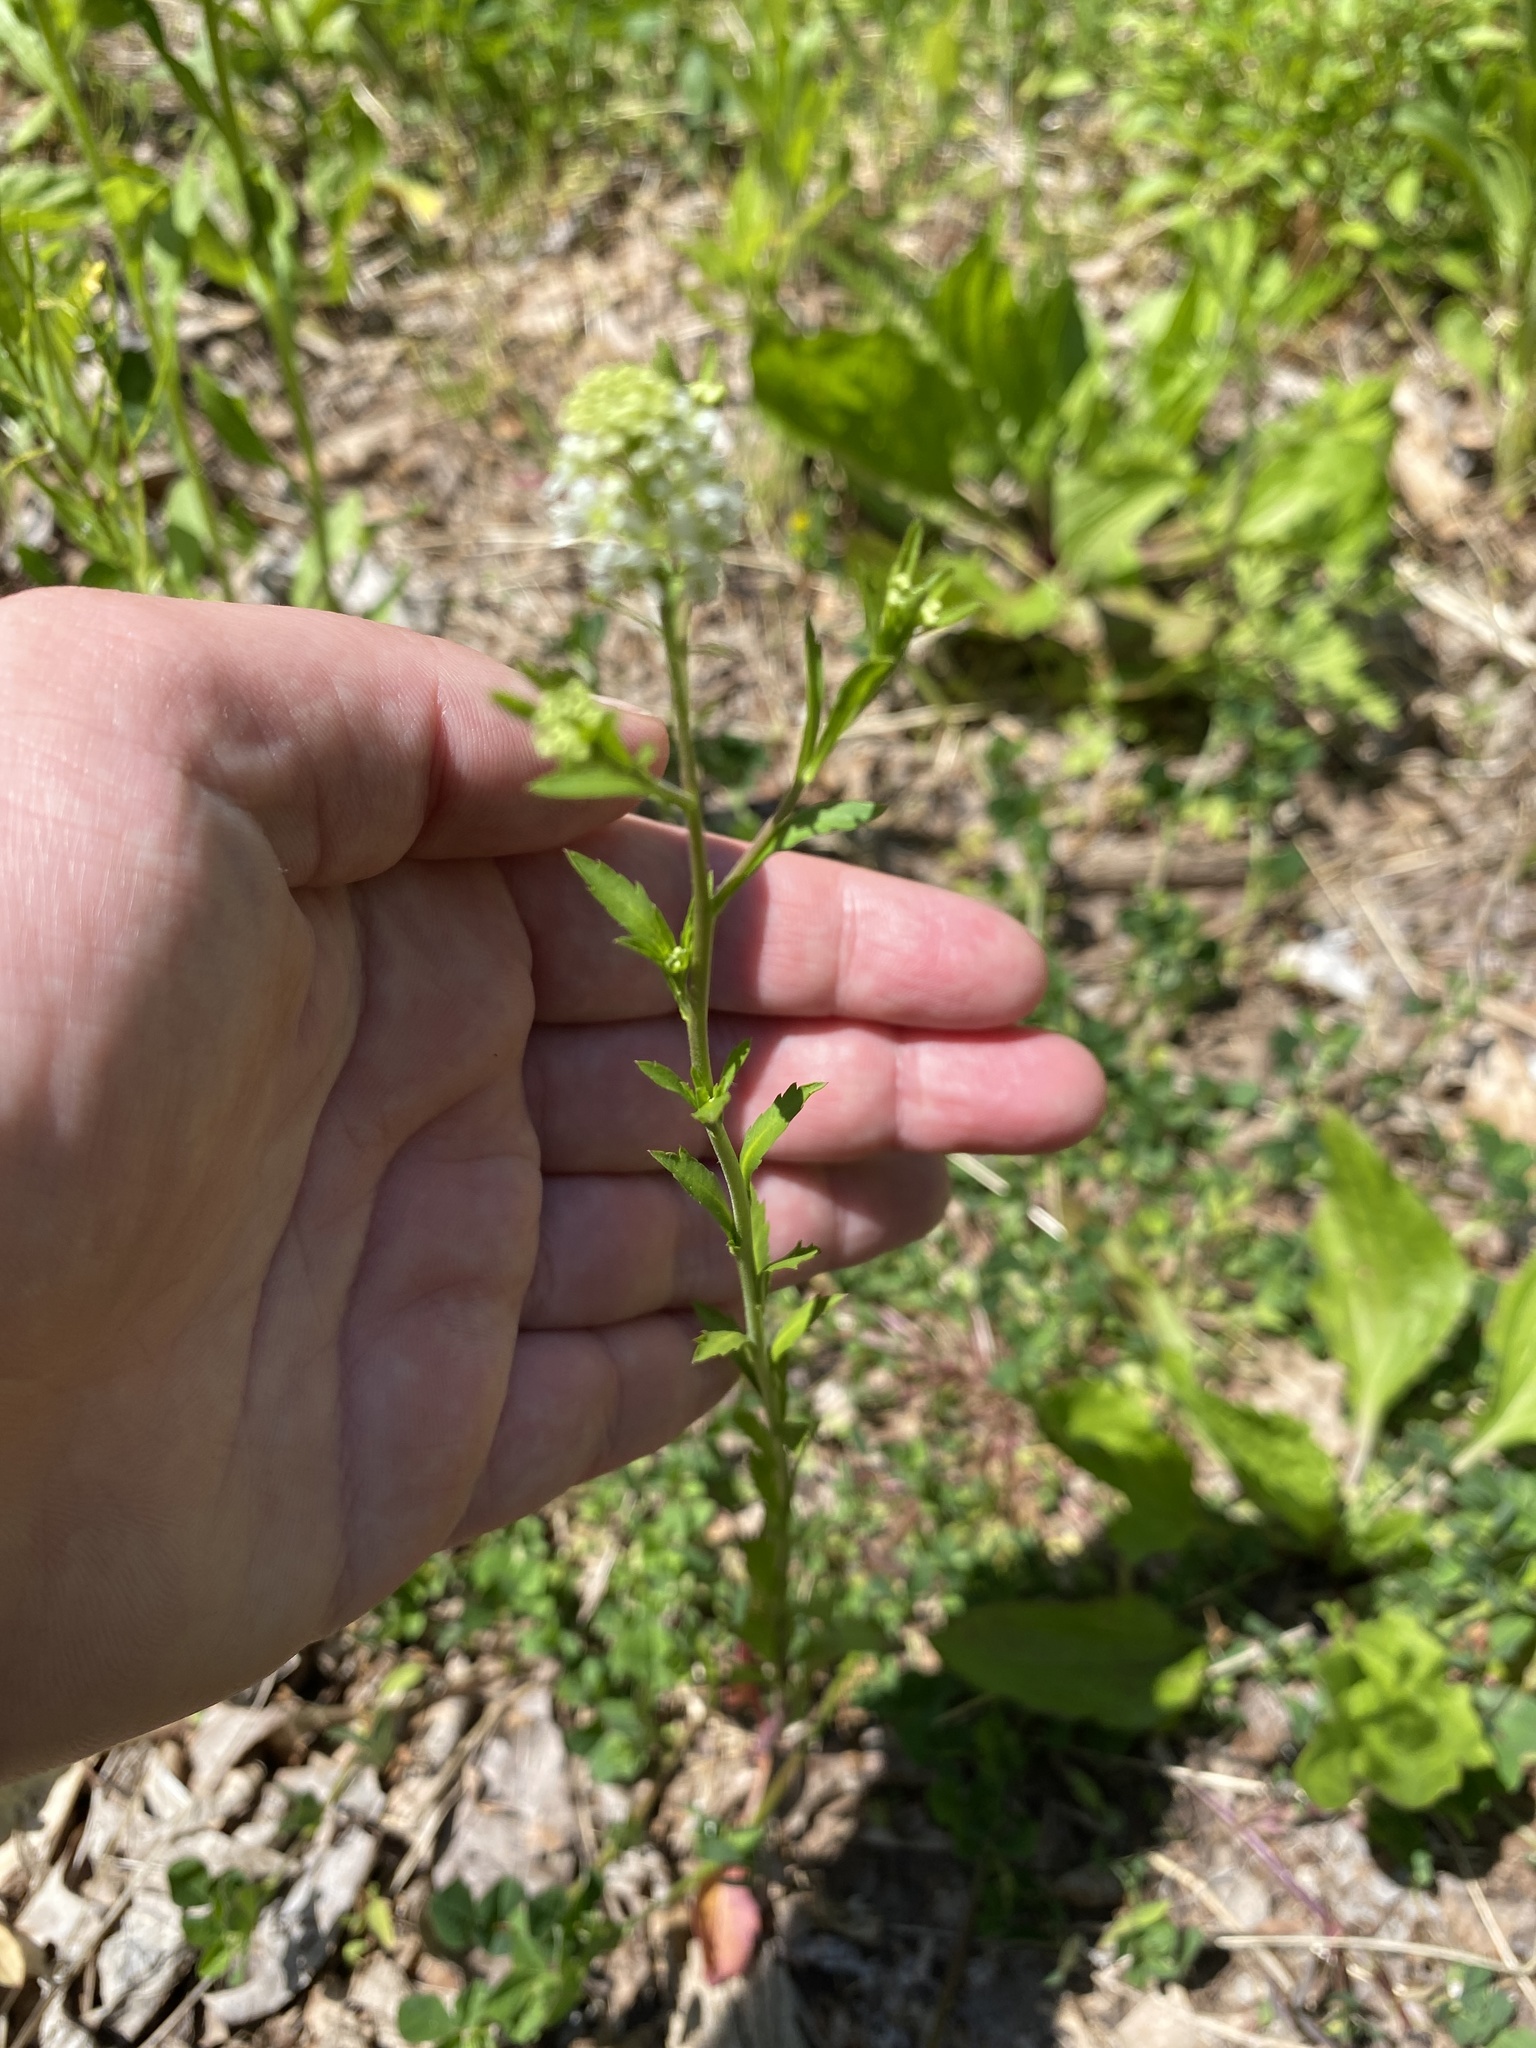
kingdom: Plantae
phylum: Tracheophyta
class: Magnoliopsida
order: Brassicales
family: Brassicaceae
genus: Lepidium
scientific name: Lepidium virginicum
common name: Least pepperwort
